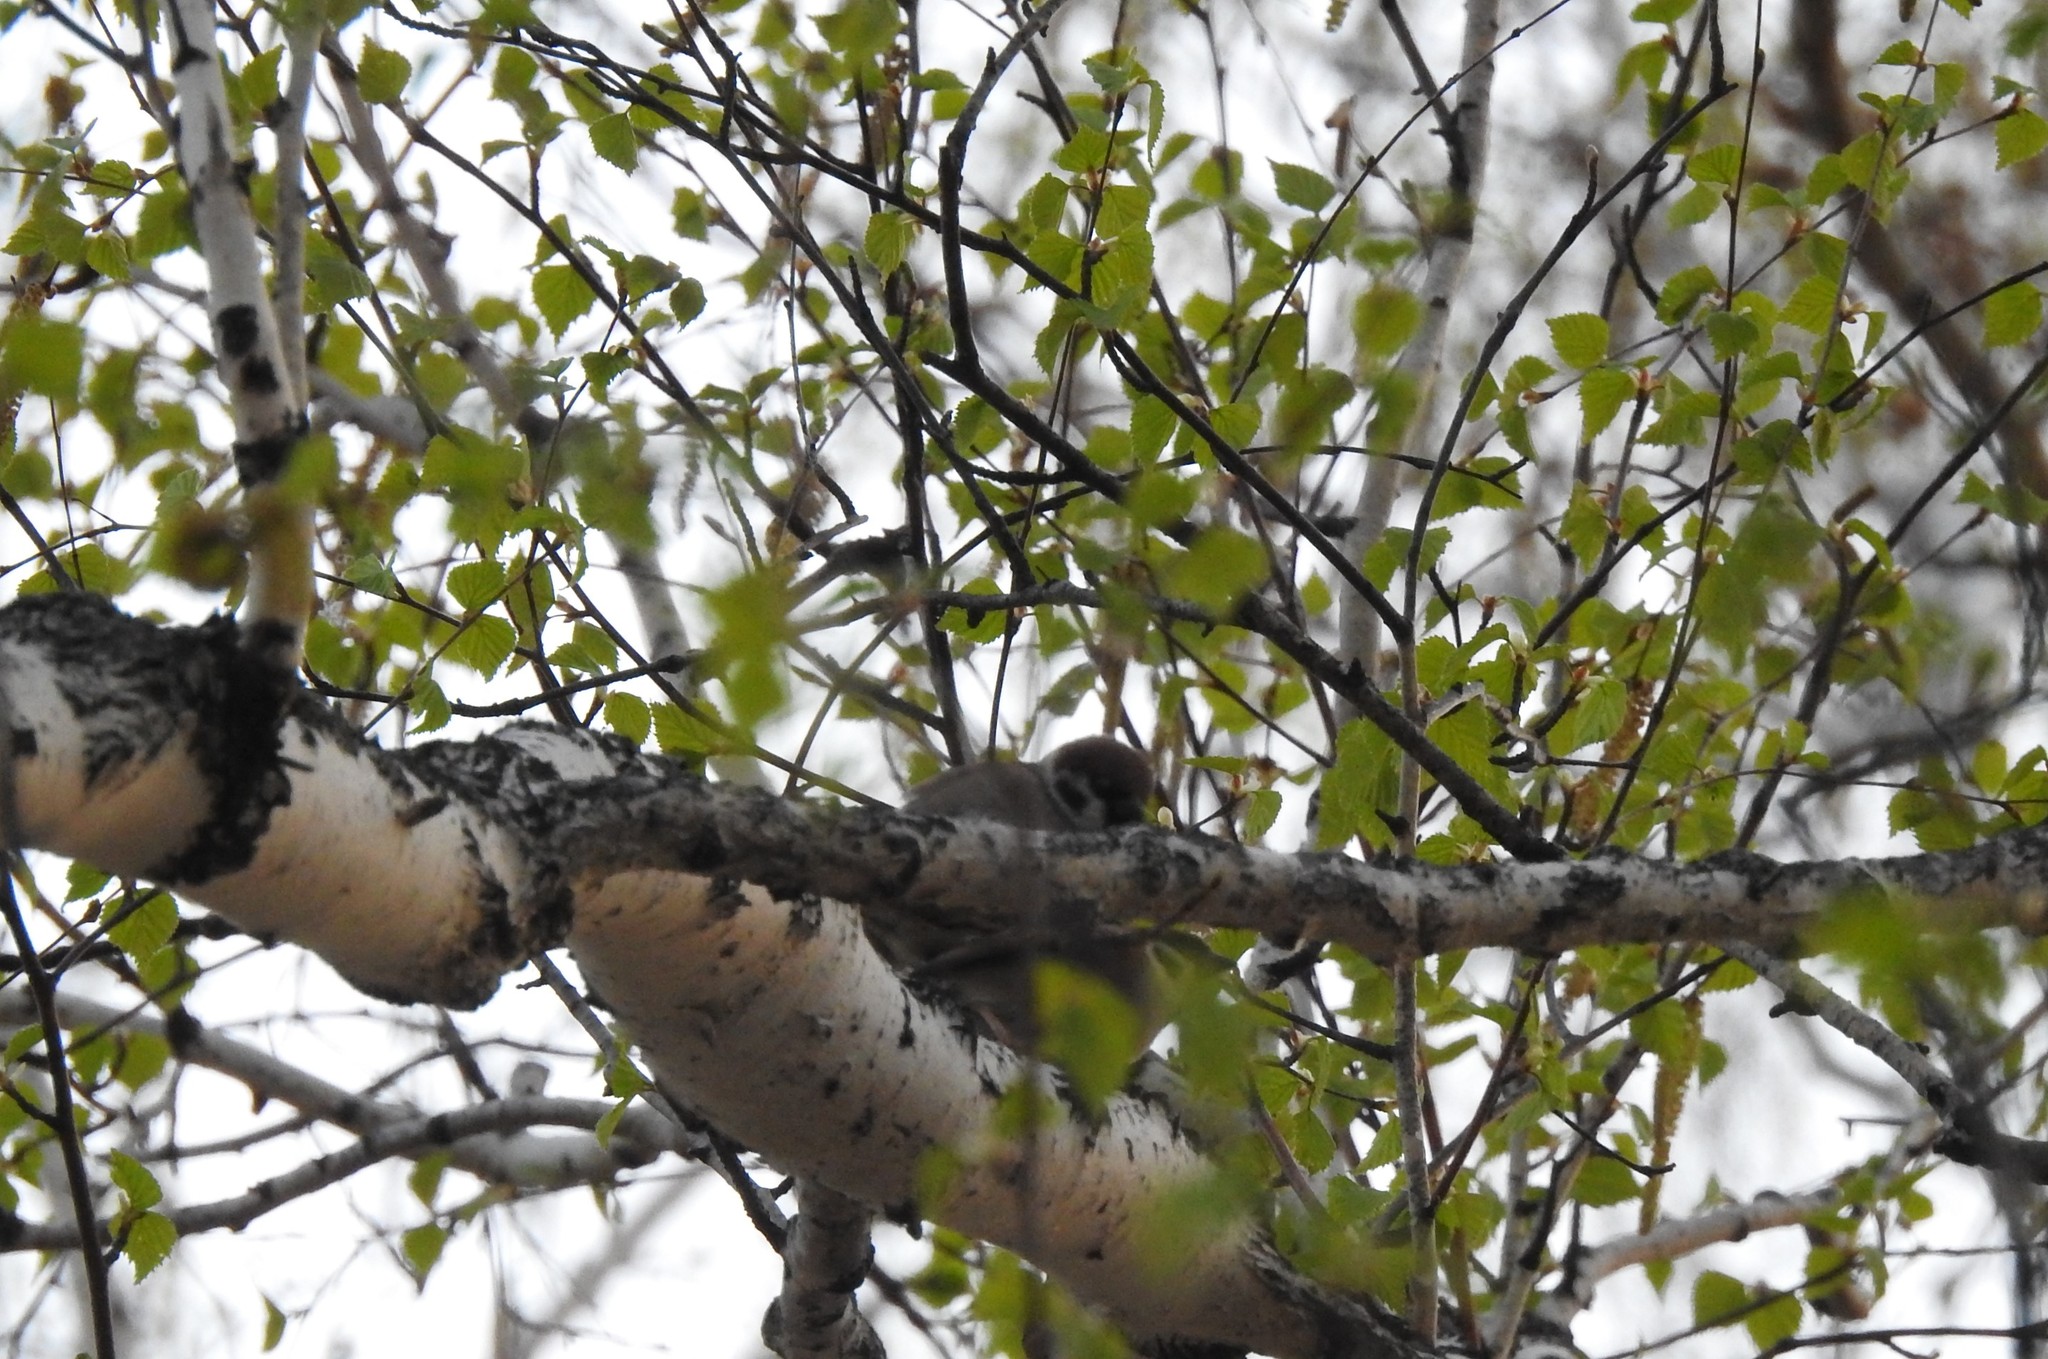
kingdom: Animalia
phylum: Chordata
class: Aves
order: Passeriformes
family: Passeridae
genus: Passer
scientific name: Passer montanus
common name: Eurasian tree sparrow
